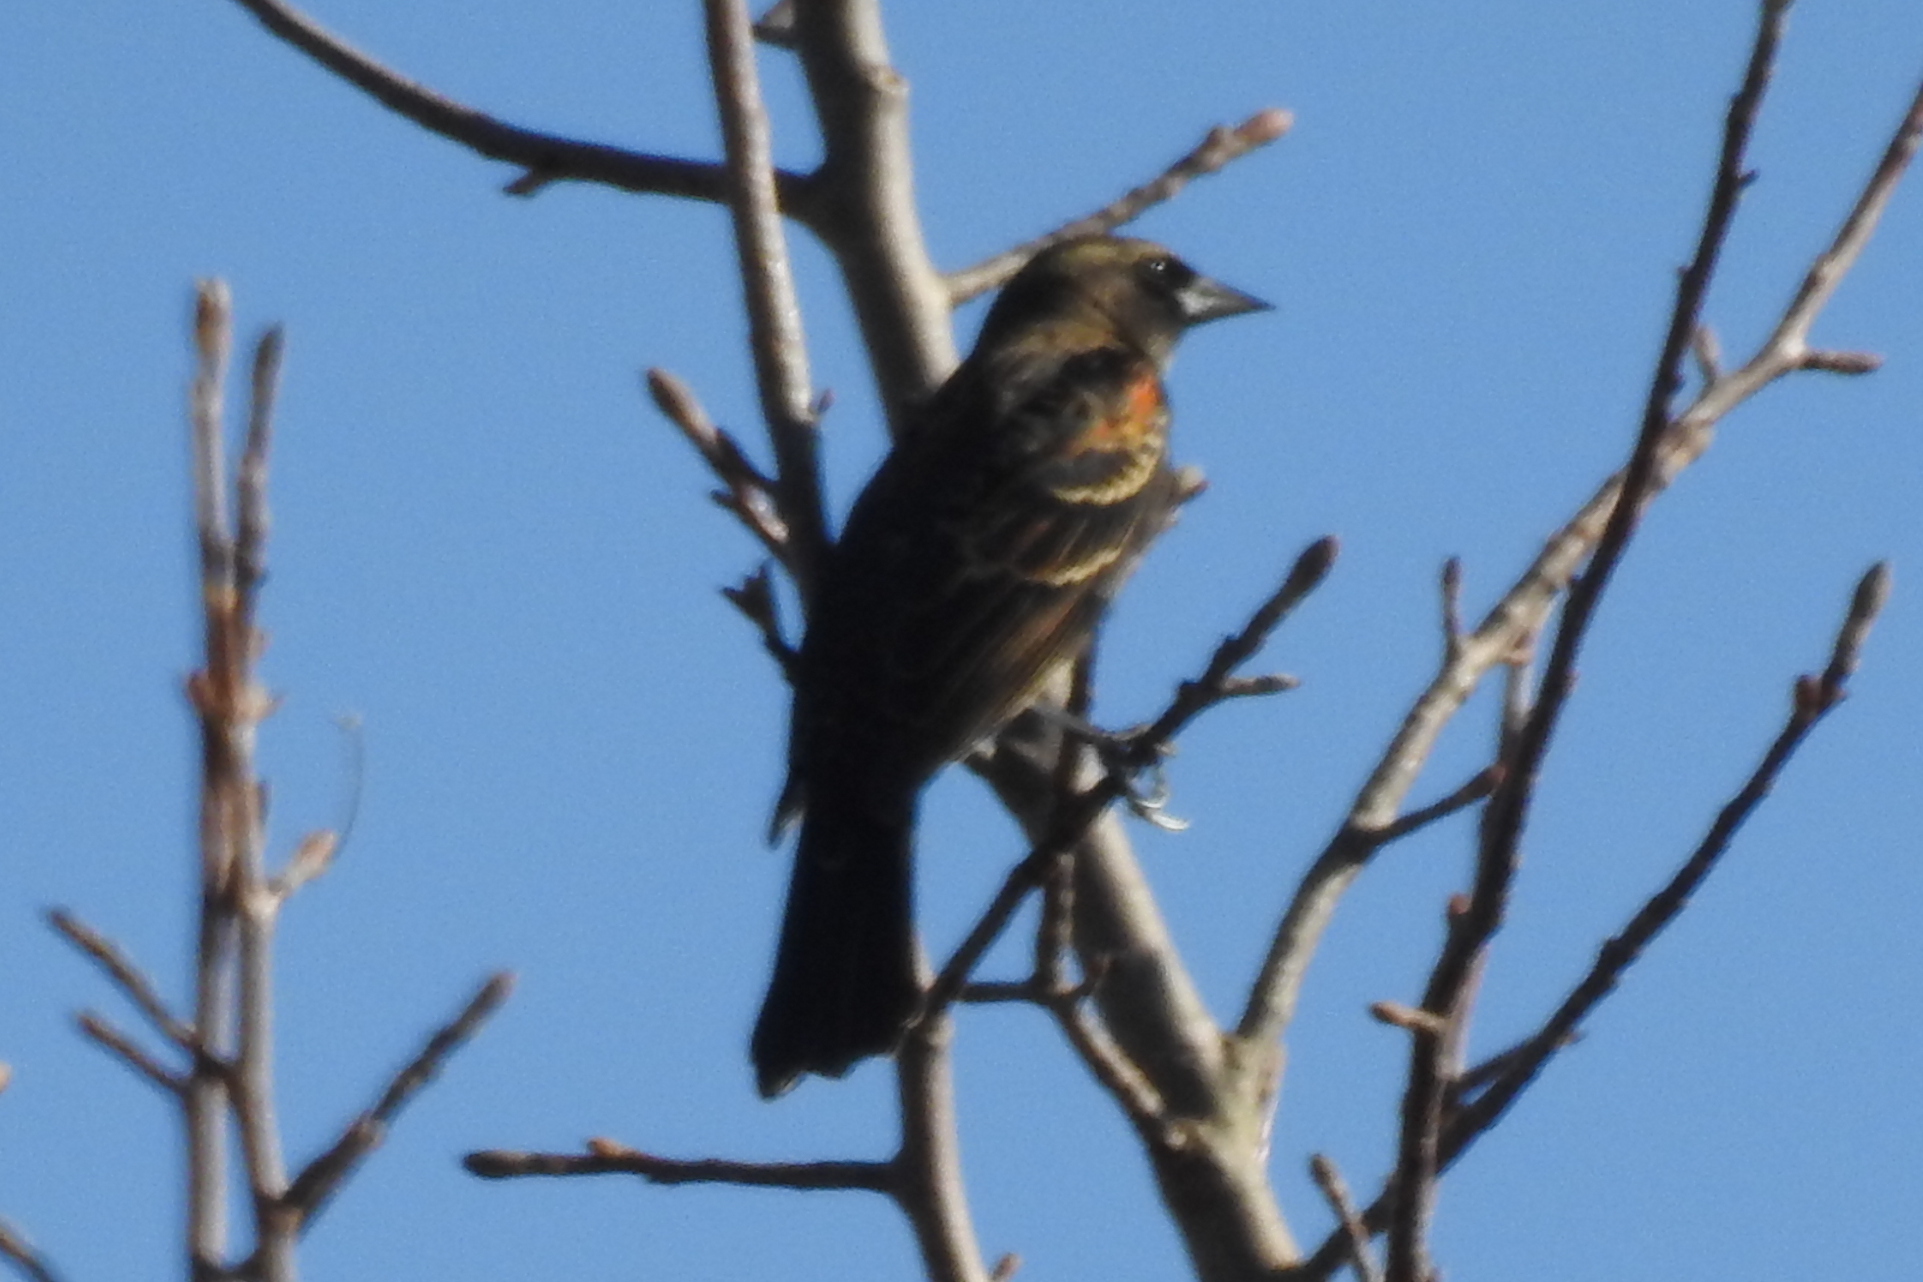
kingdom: Animalia
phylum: Chordata
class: Aves
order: Passeriformes
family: Icteridae
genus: Agelaius
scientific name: Agelaius phoeniceus
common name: Red-winged blackbird
